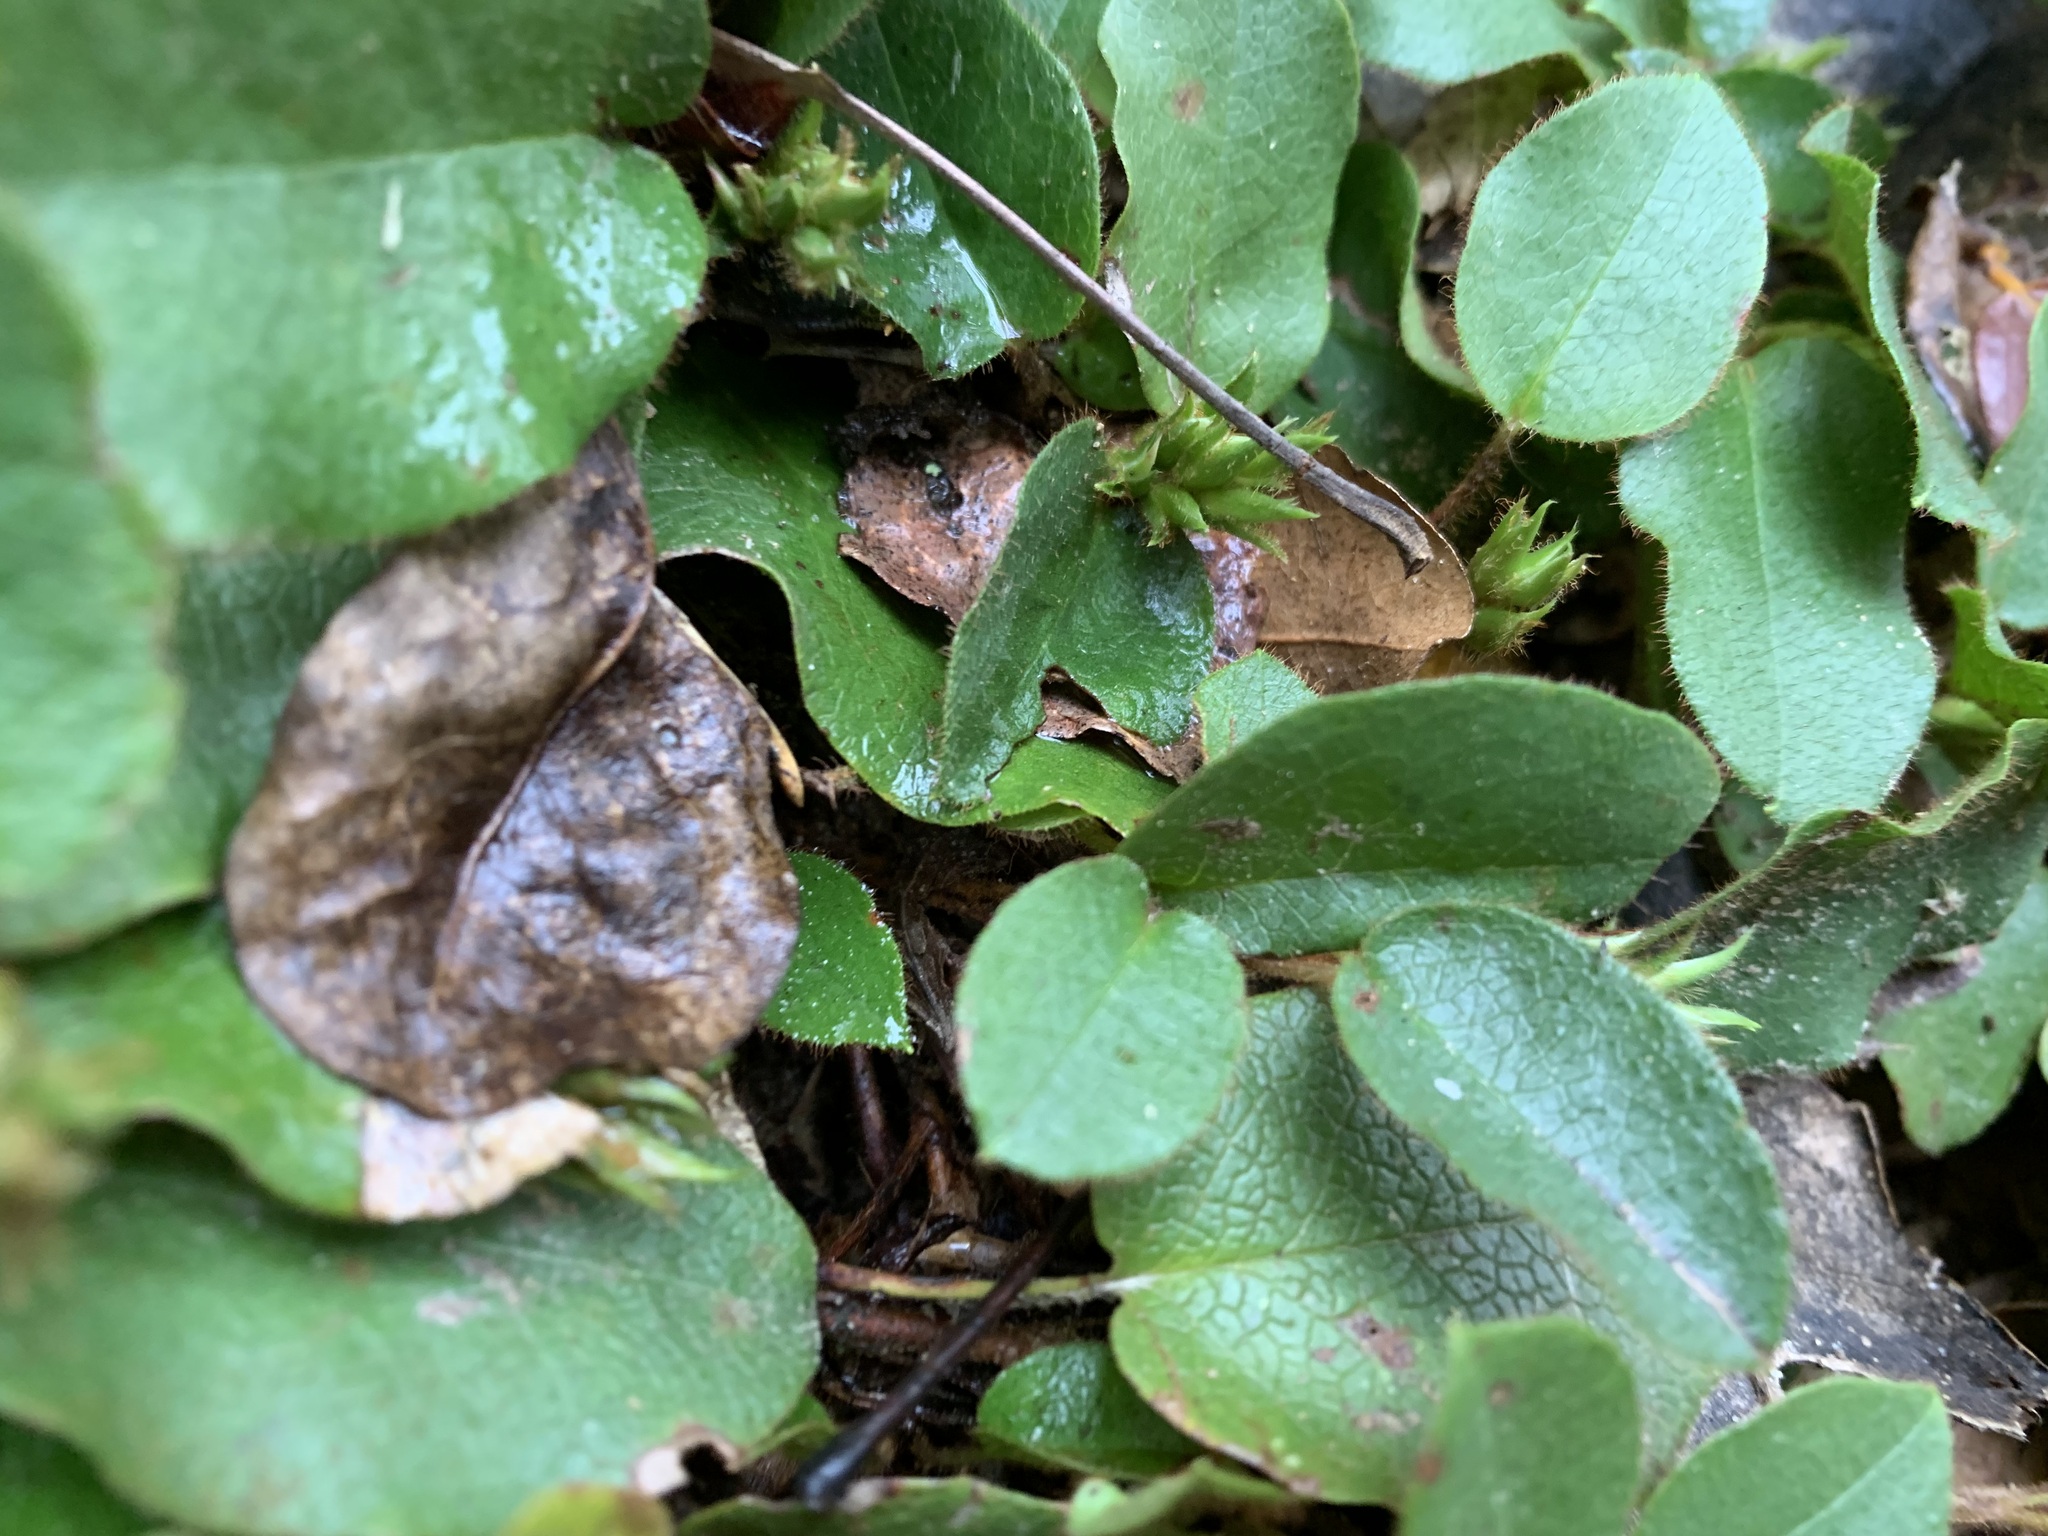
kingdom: Plantae
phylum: Tracheophyta
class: Magnoliopsida
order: Ericales
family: Ericaceae
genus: Epigaea
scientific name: Epigaea repens
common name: Gravelroot
